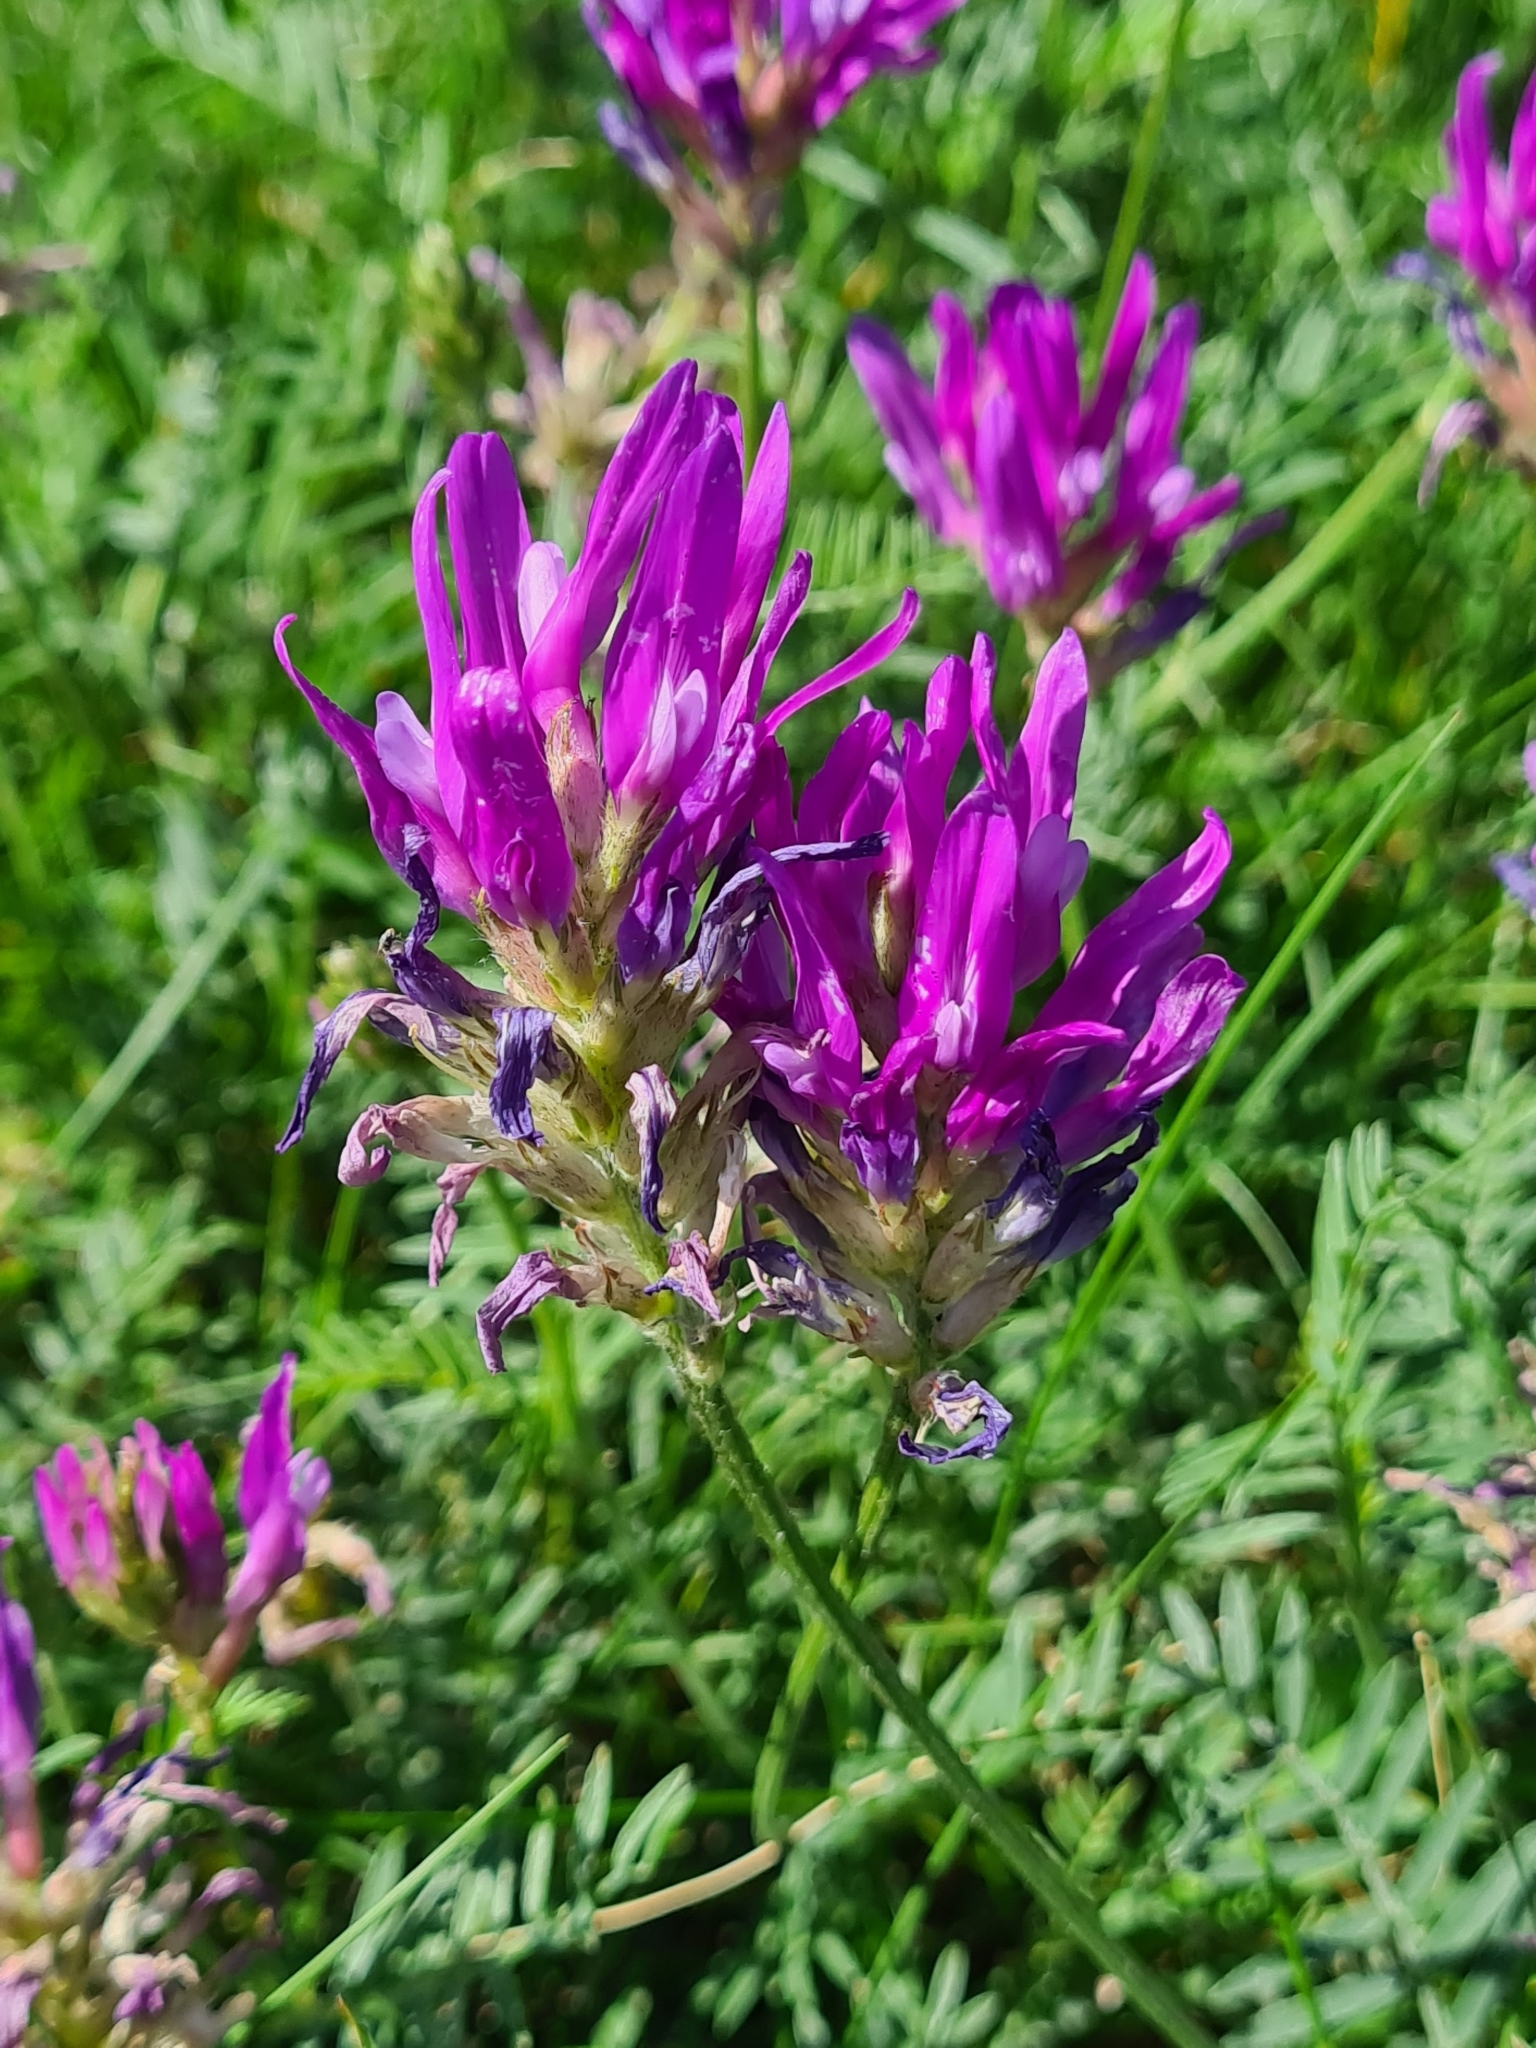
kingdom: Plantae
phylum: Tracheophyta
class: Magnoliopsida
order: Fabales
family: Fabaceae
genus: Astragalus
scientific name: Astragalus onobrychis
